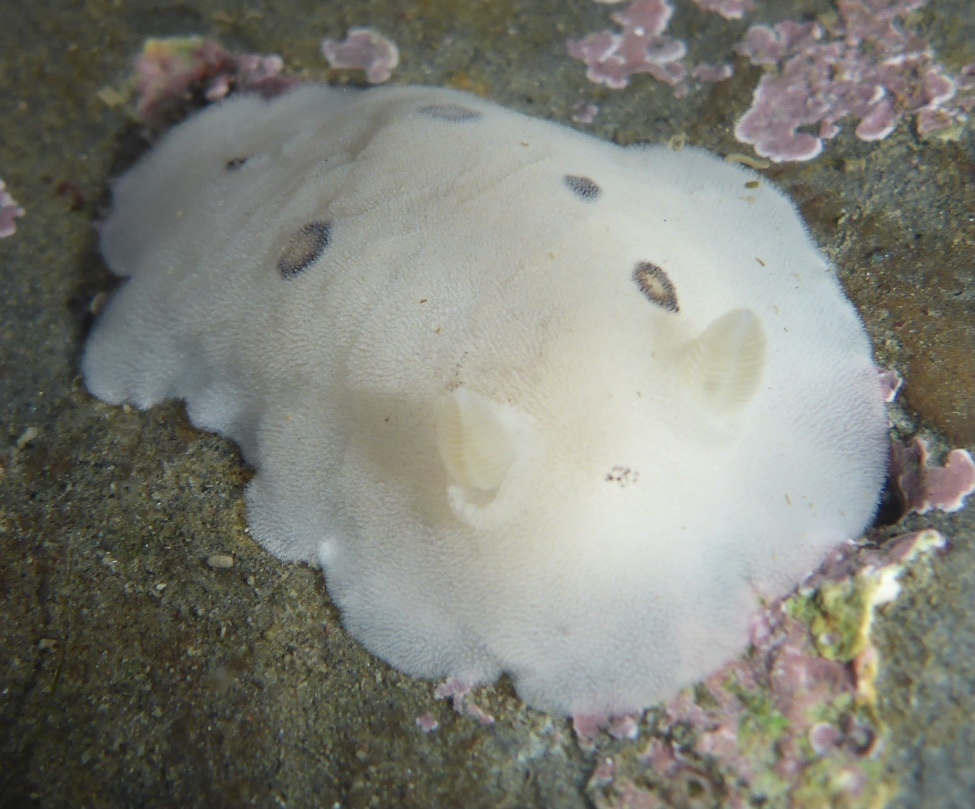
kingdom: Animalia
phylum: Mollusca
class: Gastropoda
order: Nudibranchia
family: Discodorididae
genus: Diaulula
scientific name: Diaulula sandiegensis
